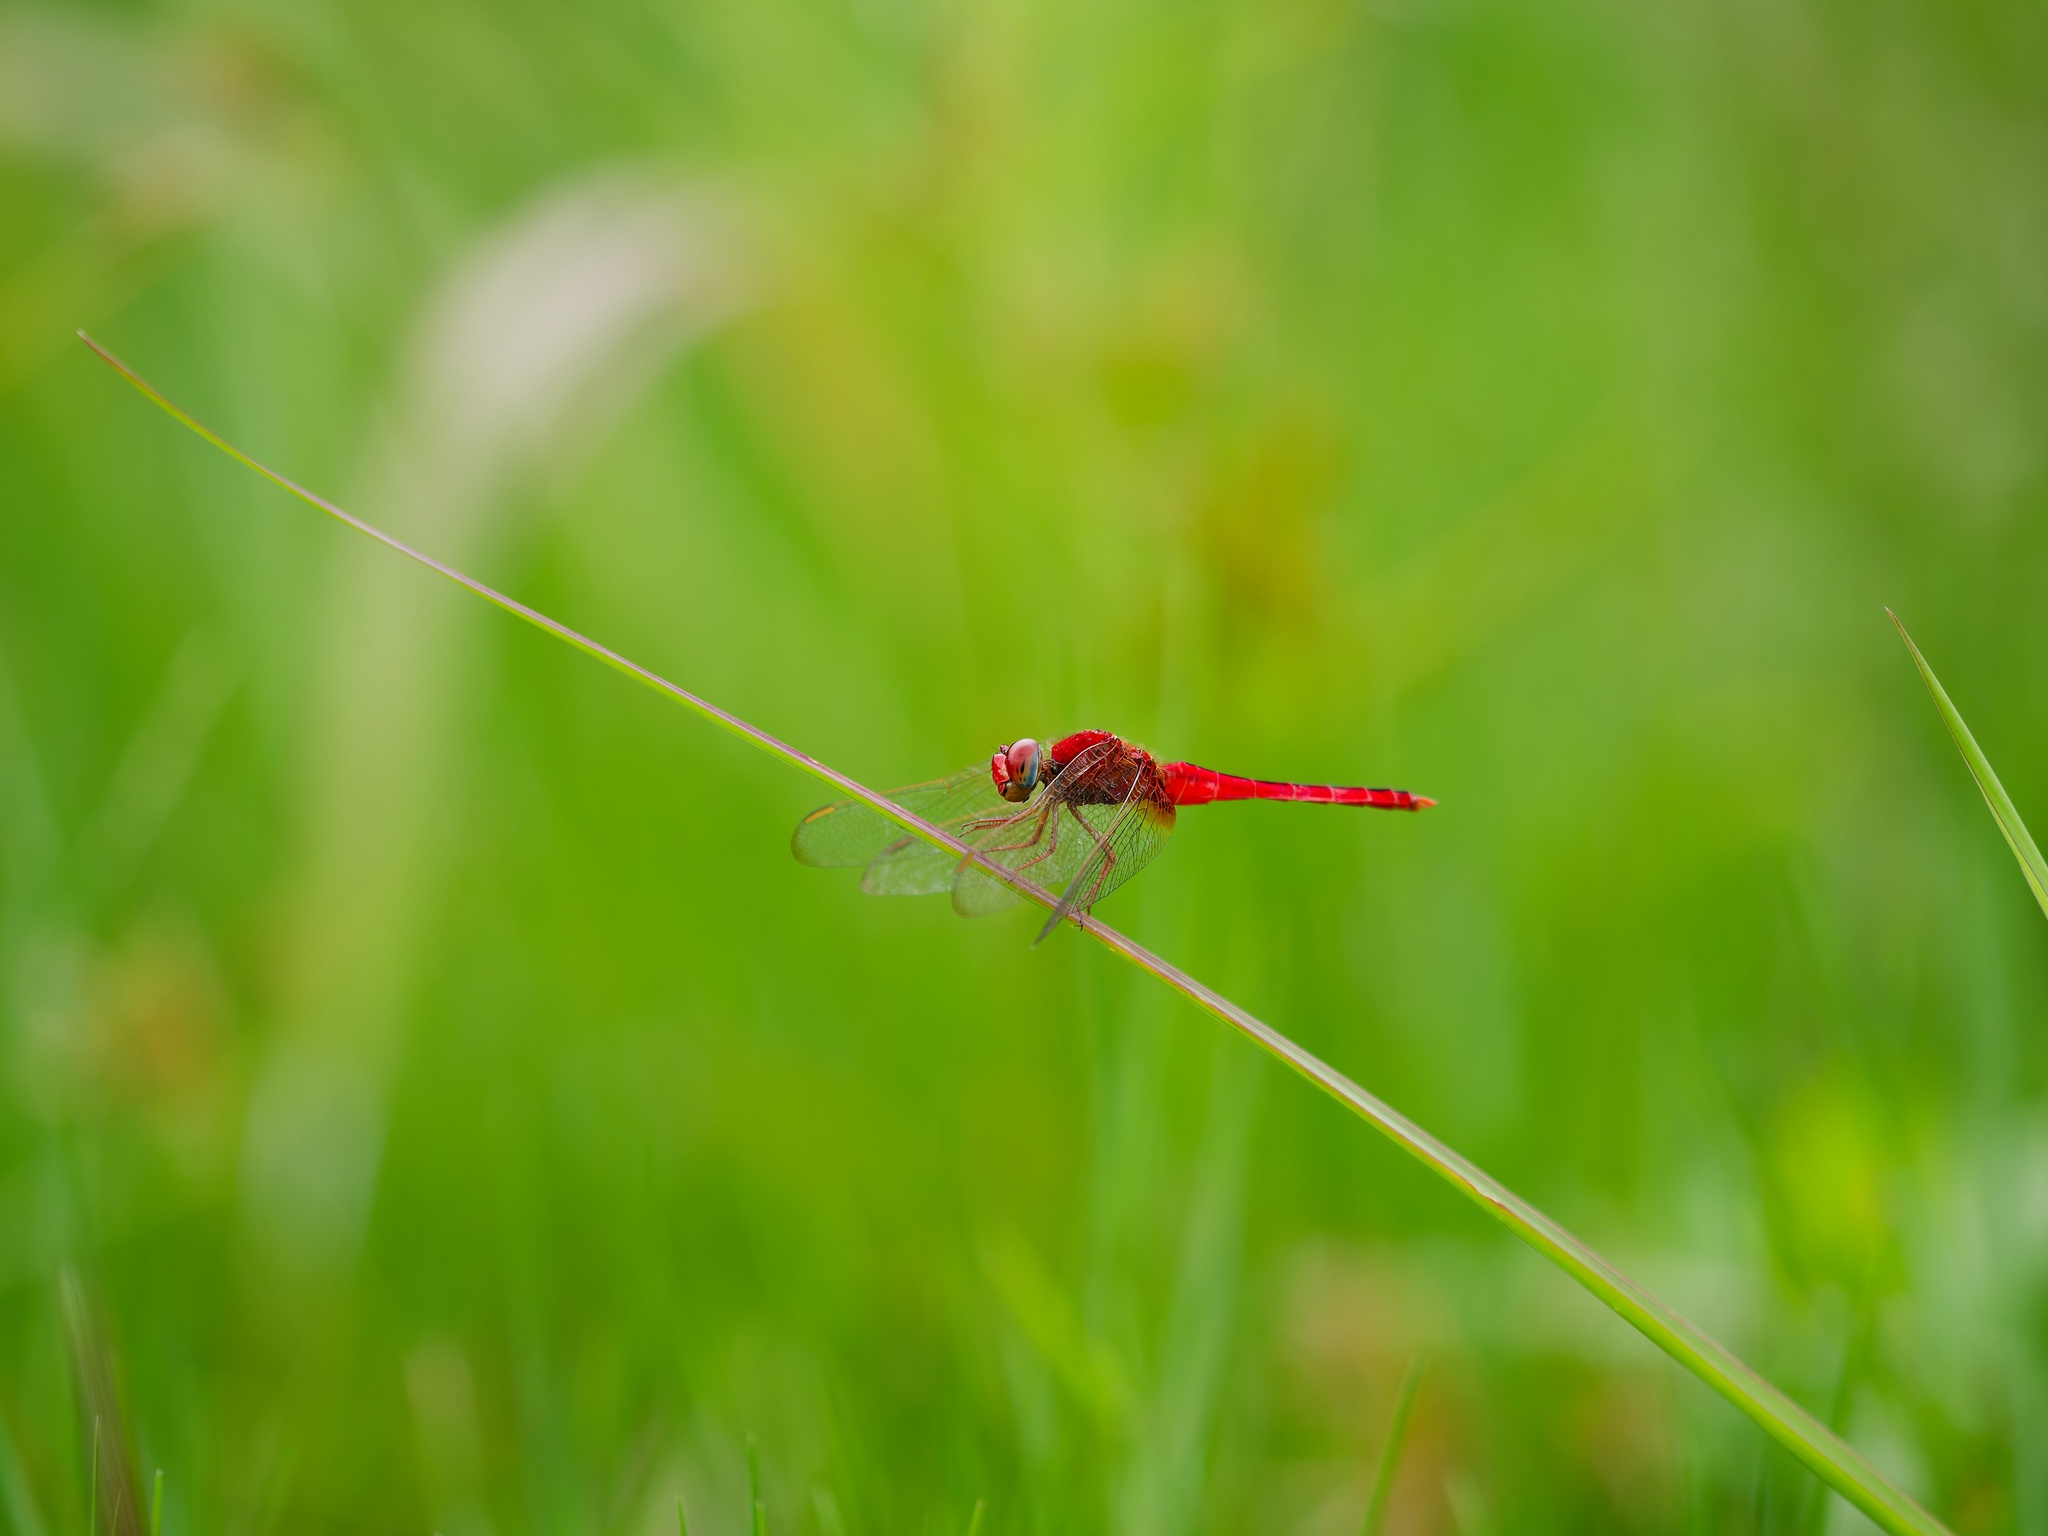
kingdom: Animalia
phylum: Arthropoda
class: Insecta
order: Odonata
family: Libellulidae
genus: Crocothemis
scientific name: Crocothemis servilia
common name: Scarlet skimmer
